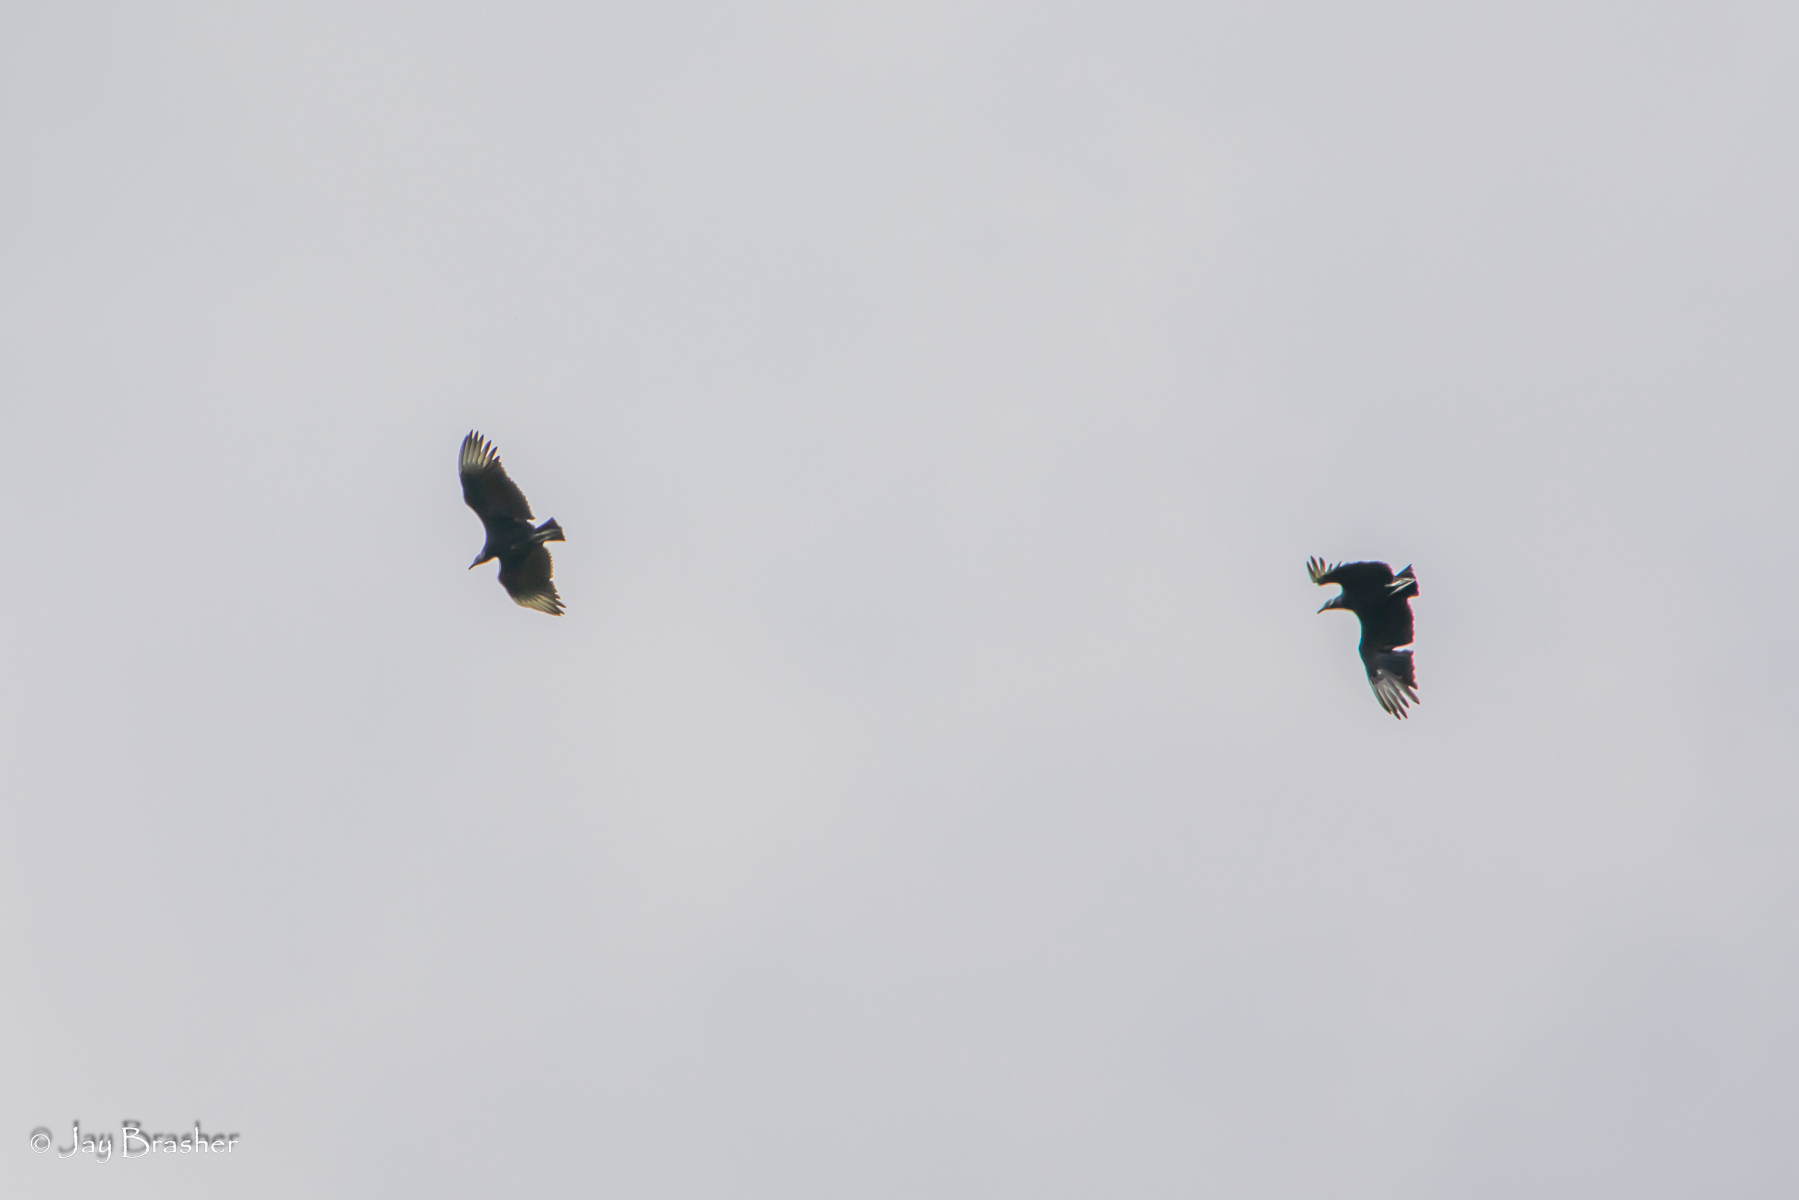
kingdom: Animalia
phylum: Chordata
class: Aves
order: Accipitriformes
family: Cathartidae
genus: Coragyps
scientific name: Coragyps atratus
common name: Black vulture
